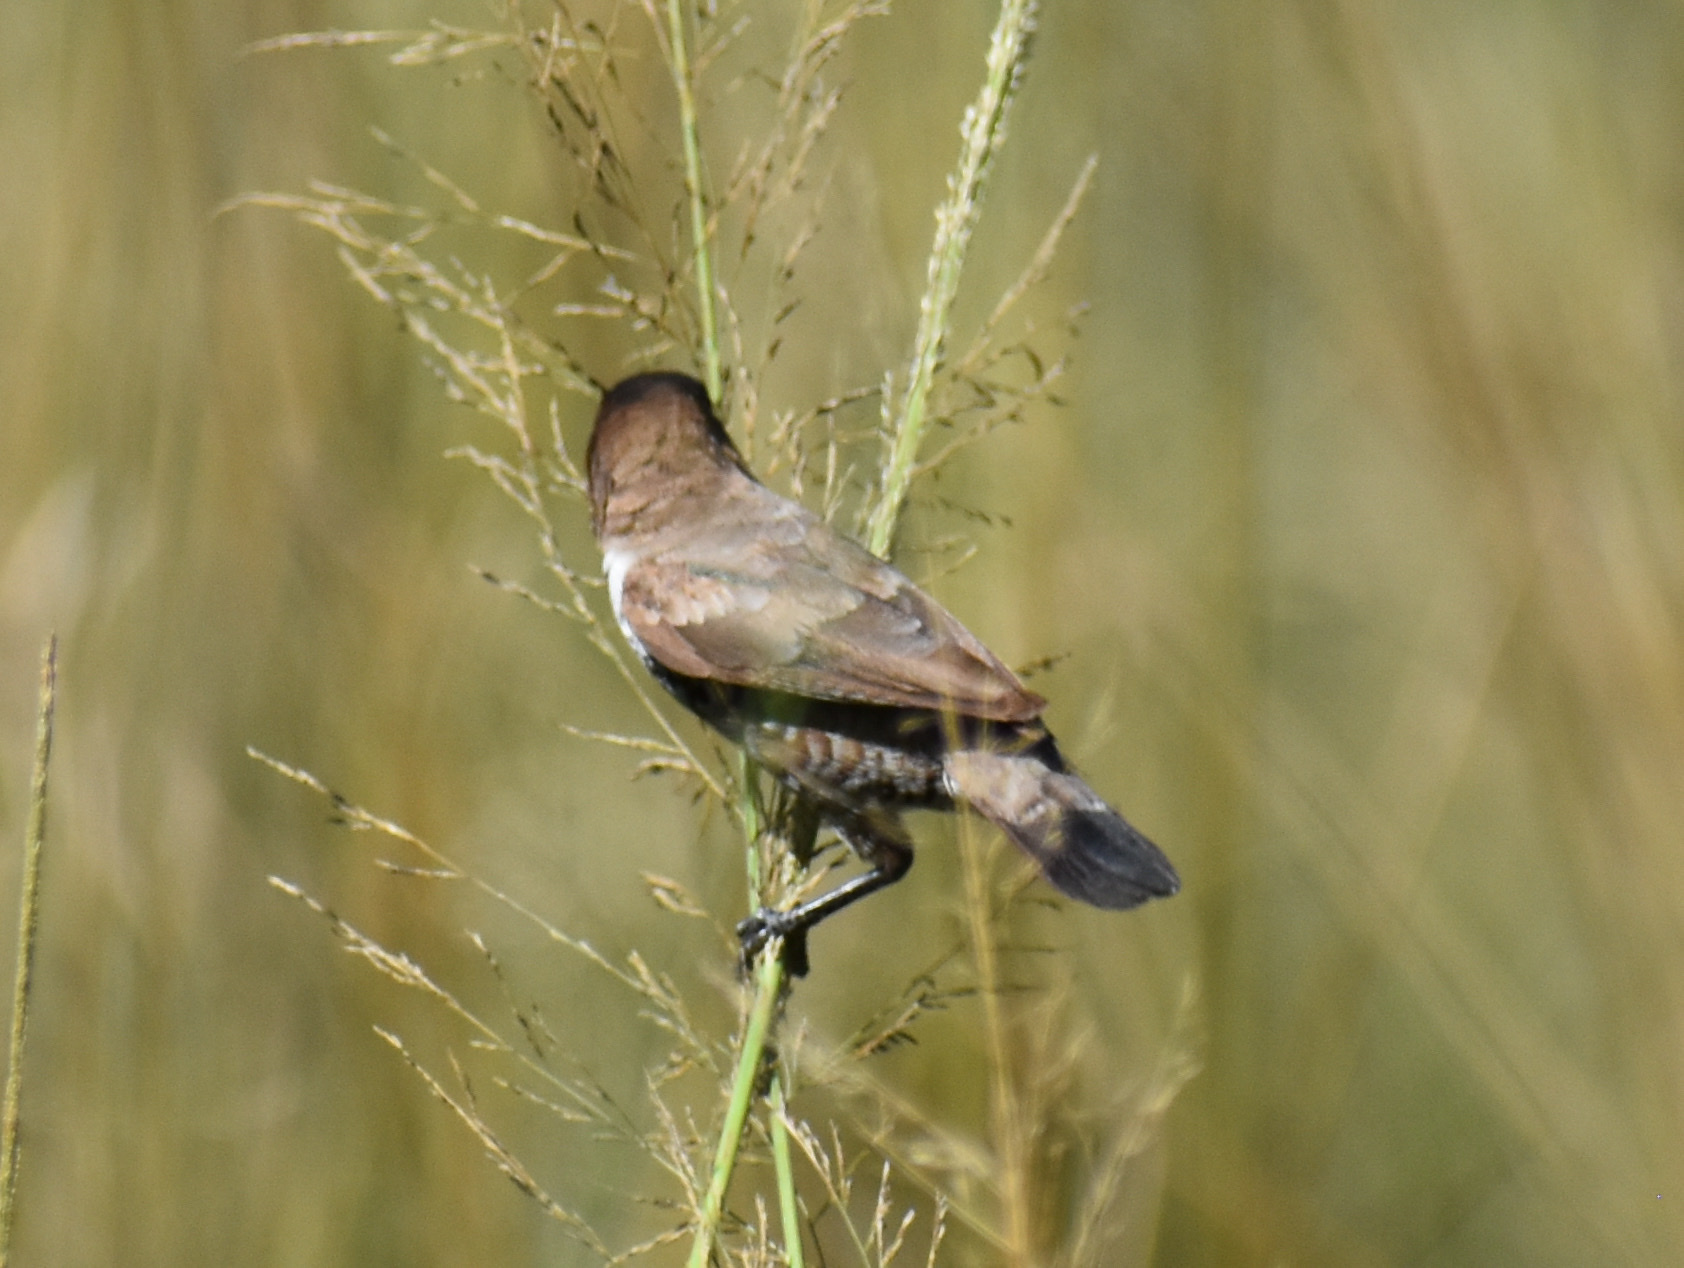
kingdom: Animalia
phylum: Chordata
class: Aves
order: Passeriformes
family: Estrildidae
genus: Lonchura
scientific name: Lonchura cucullata
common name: Bronze mannikin
